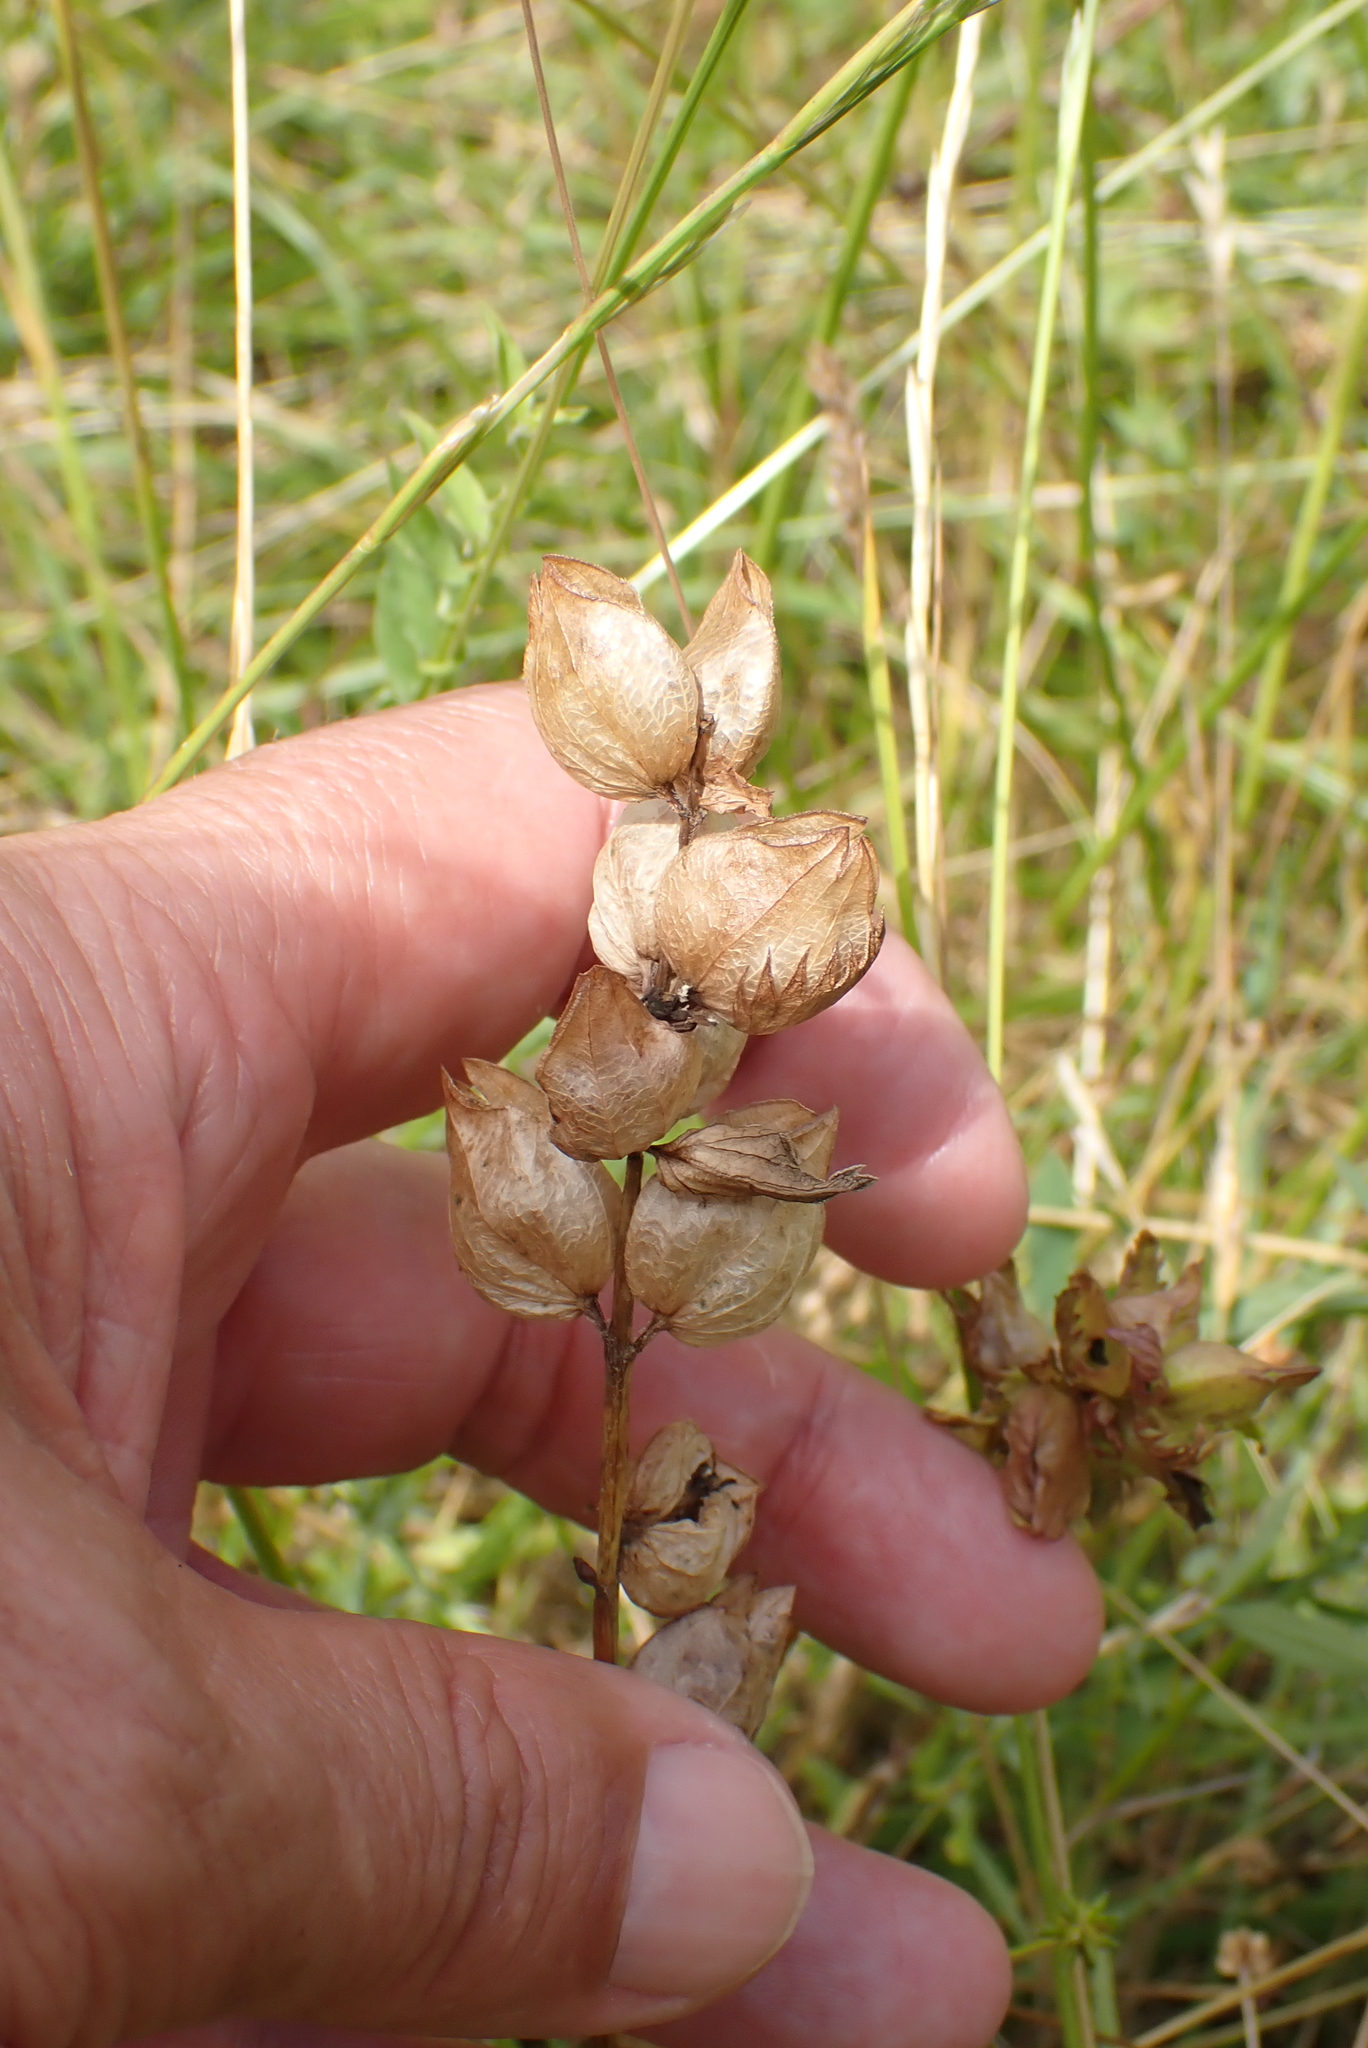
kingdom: Plantae
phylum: Tracheophyta
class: Magnoliopsida
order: Lamiales
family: Orobanchaceae
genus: Rhinanthus
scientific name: Rhinanthus minor
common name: Yellow-rattle
